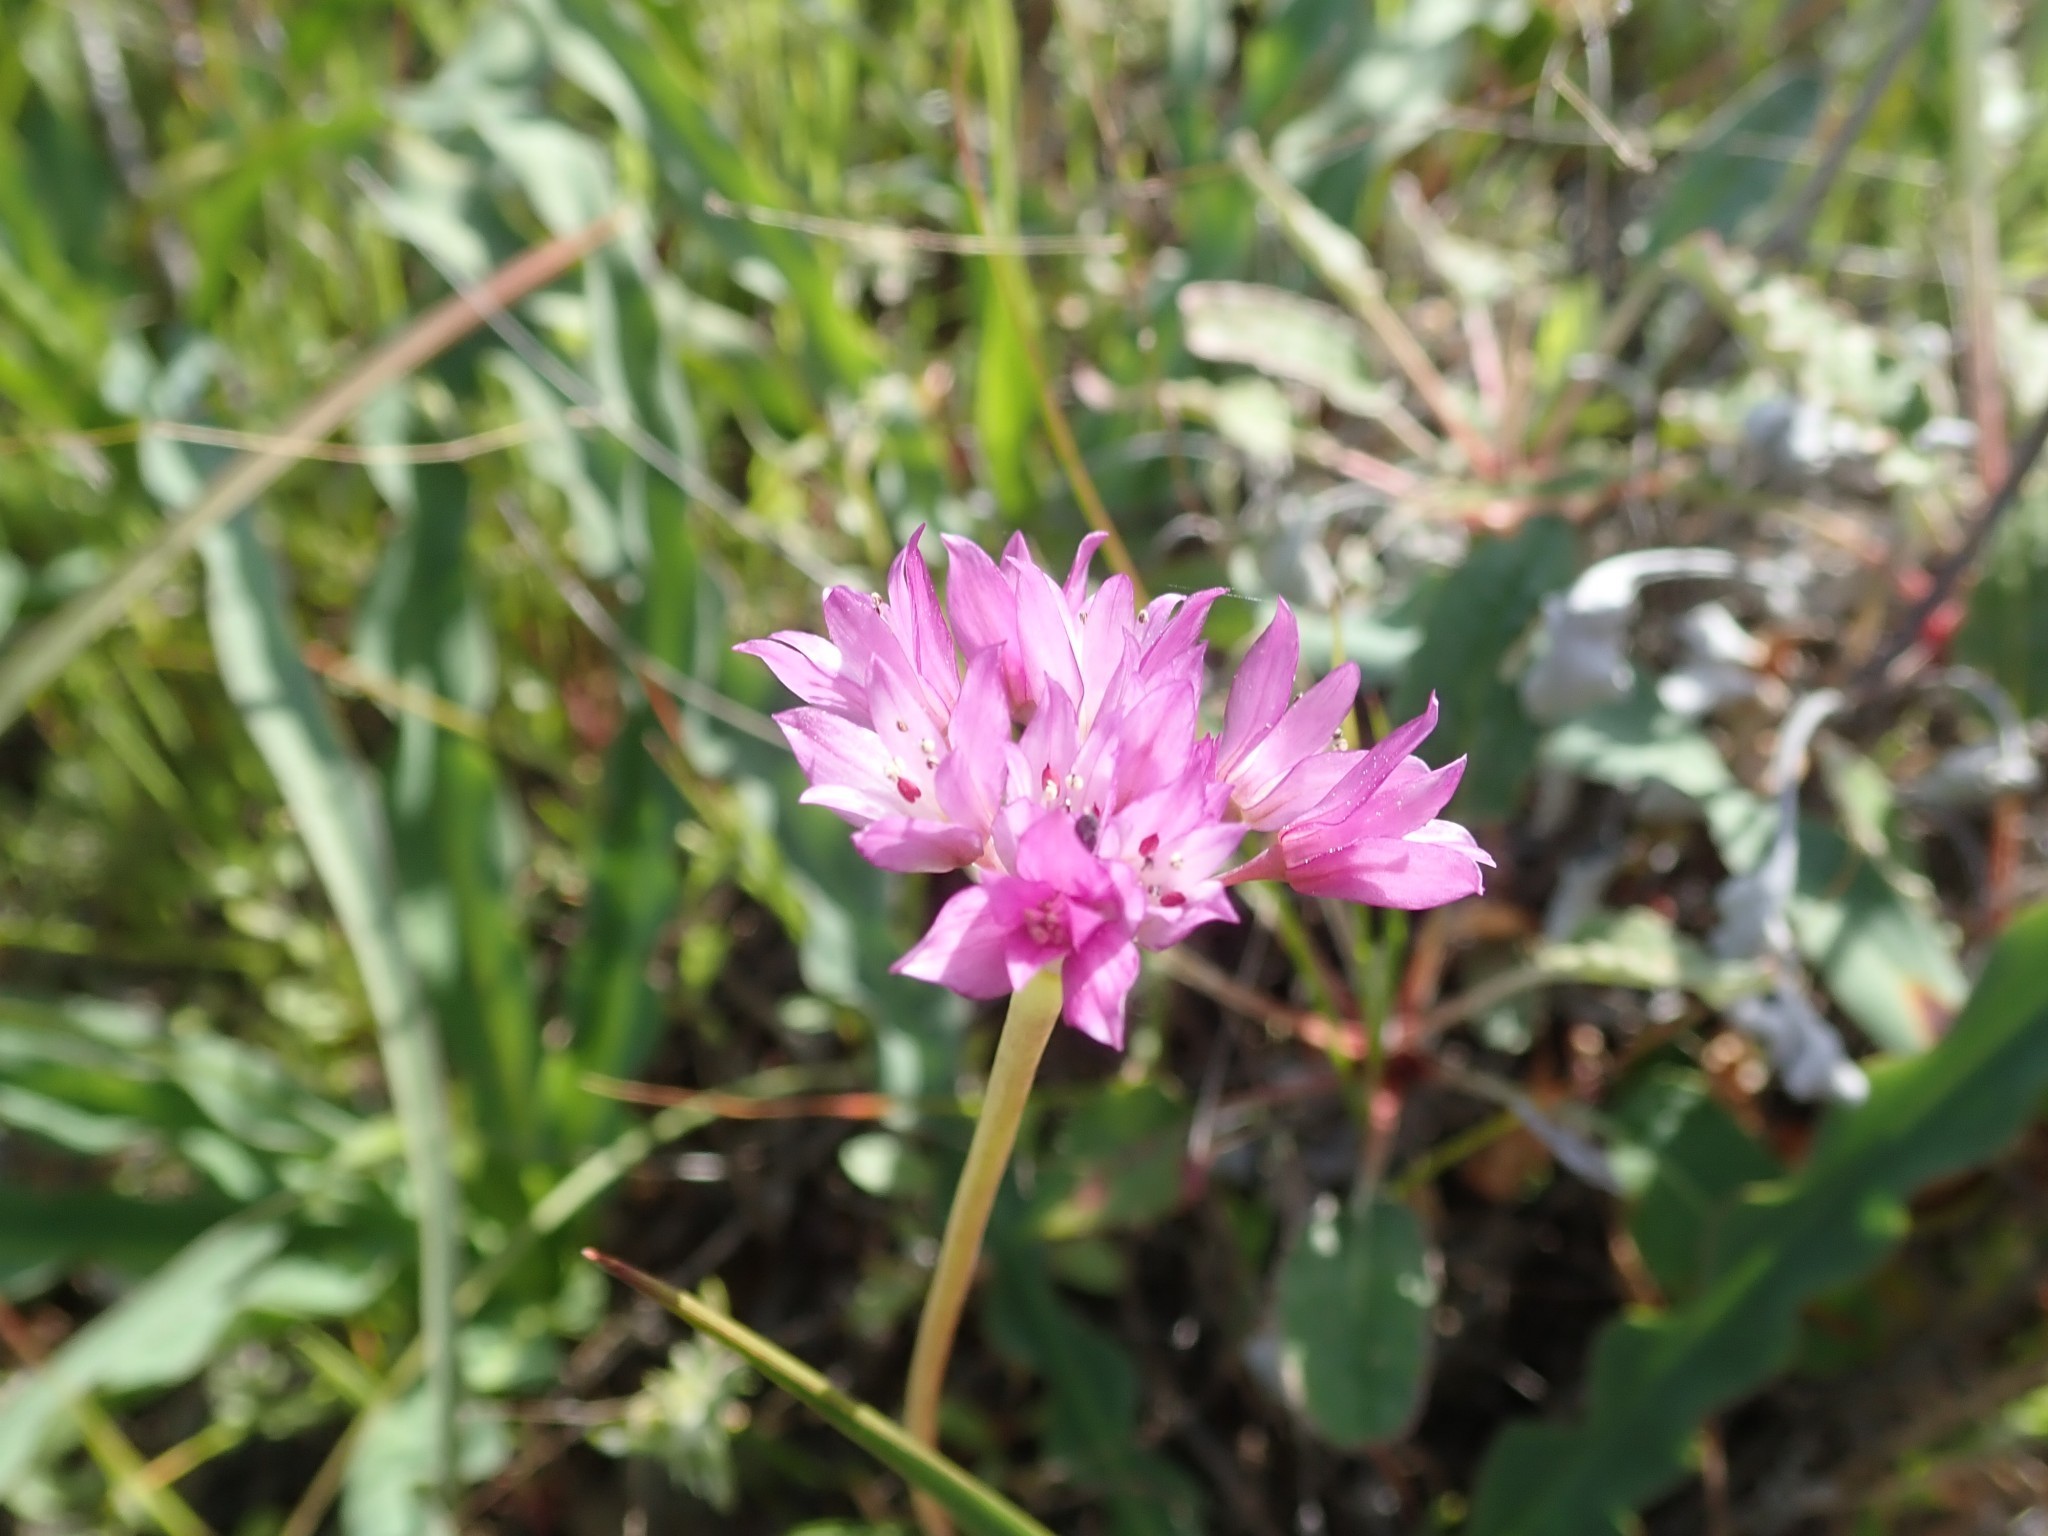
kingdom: Plantae
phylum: Tracheophyta
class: Liliopsida
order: Asparagales
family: Amaryllidaceae
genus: Allium
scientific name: Allium serra
